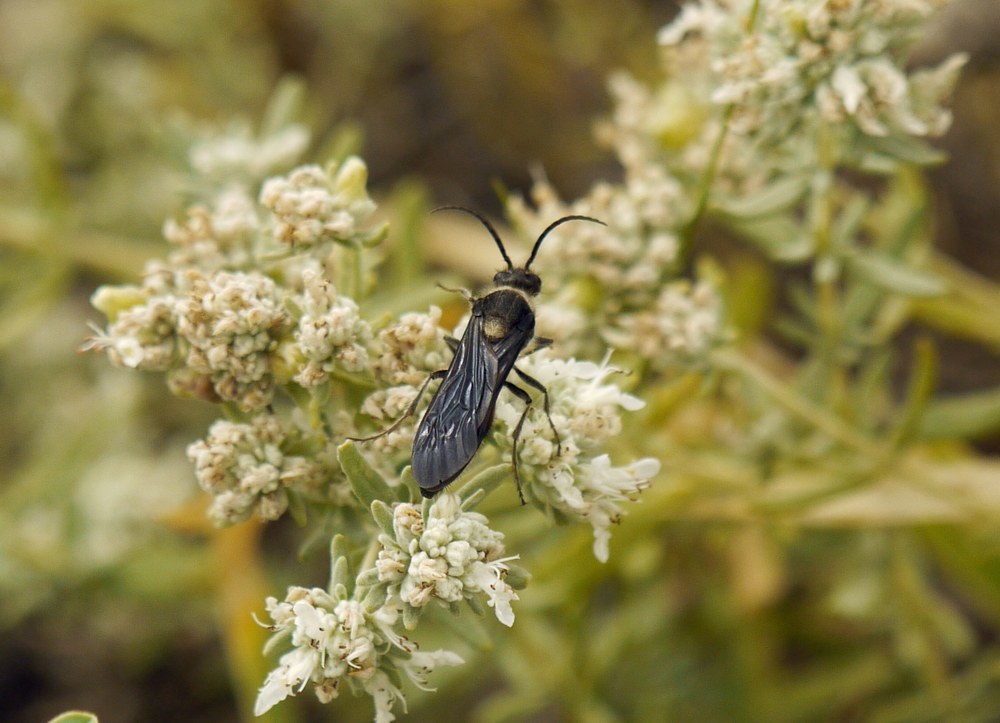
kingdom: Animalia
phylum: Arthropoda
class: Insecta
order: Hymenoptera
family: Mutillidae
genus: Nemka
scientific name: Nemka viduata
